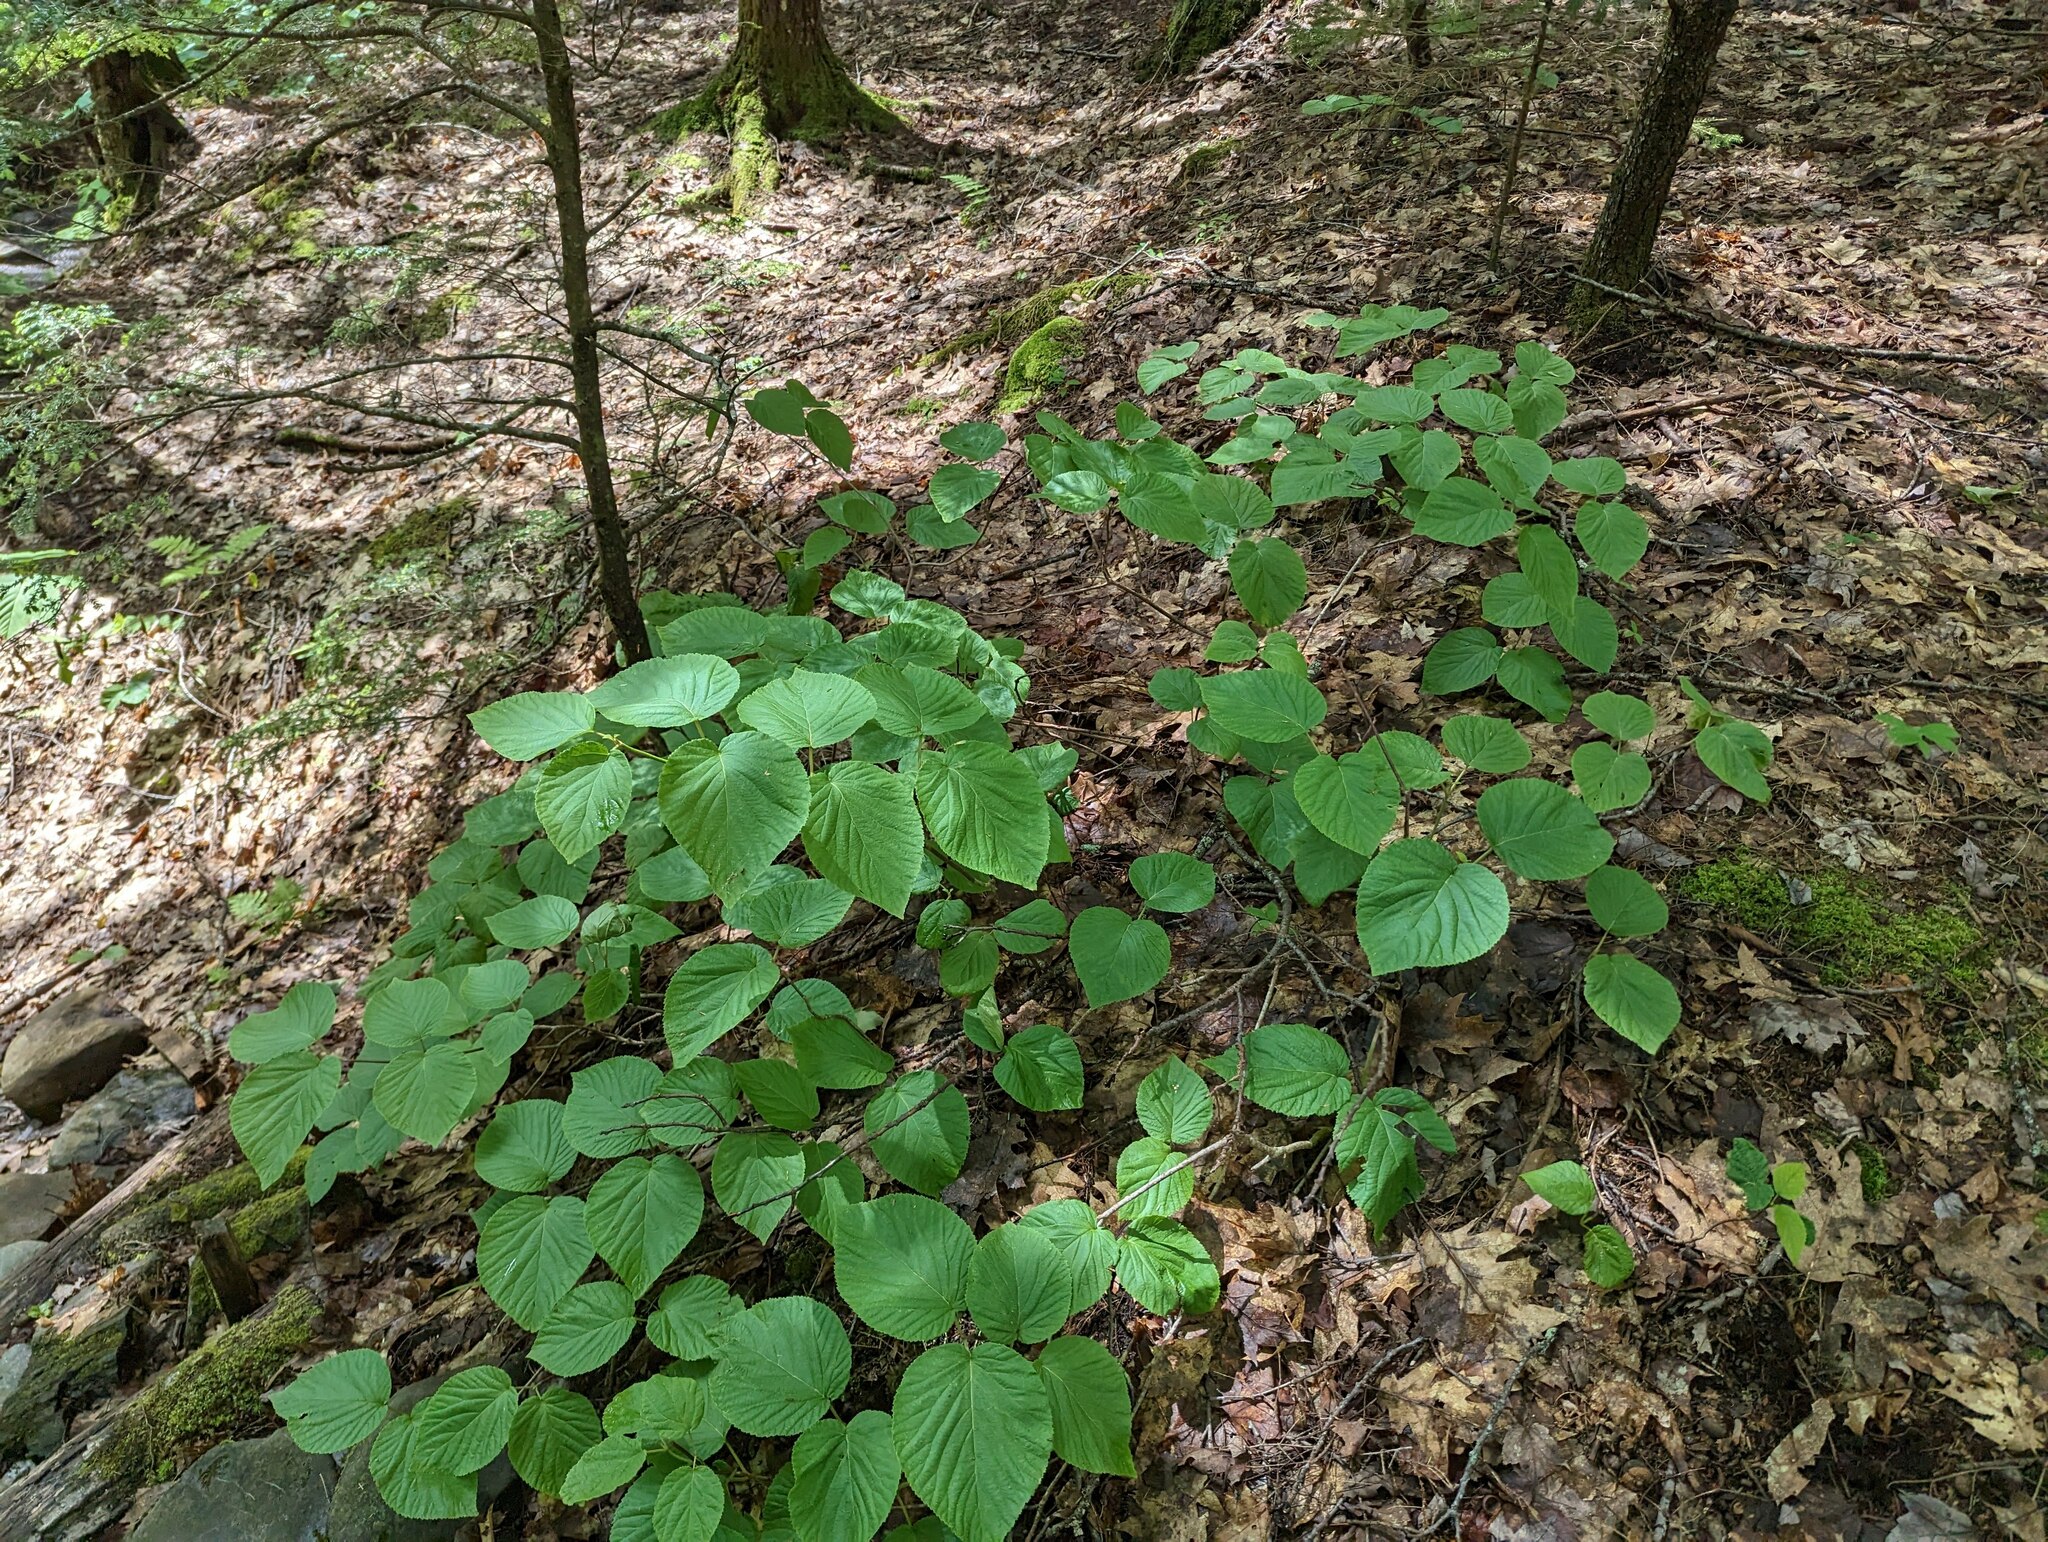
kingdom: Plantae
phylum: Tracheophyta
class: Magnoliopsida
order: Dipsacales
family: Viburnaceae
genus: Viburnum
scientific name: Viburnum lantanoides
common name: Hobblebush
